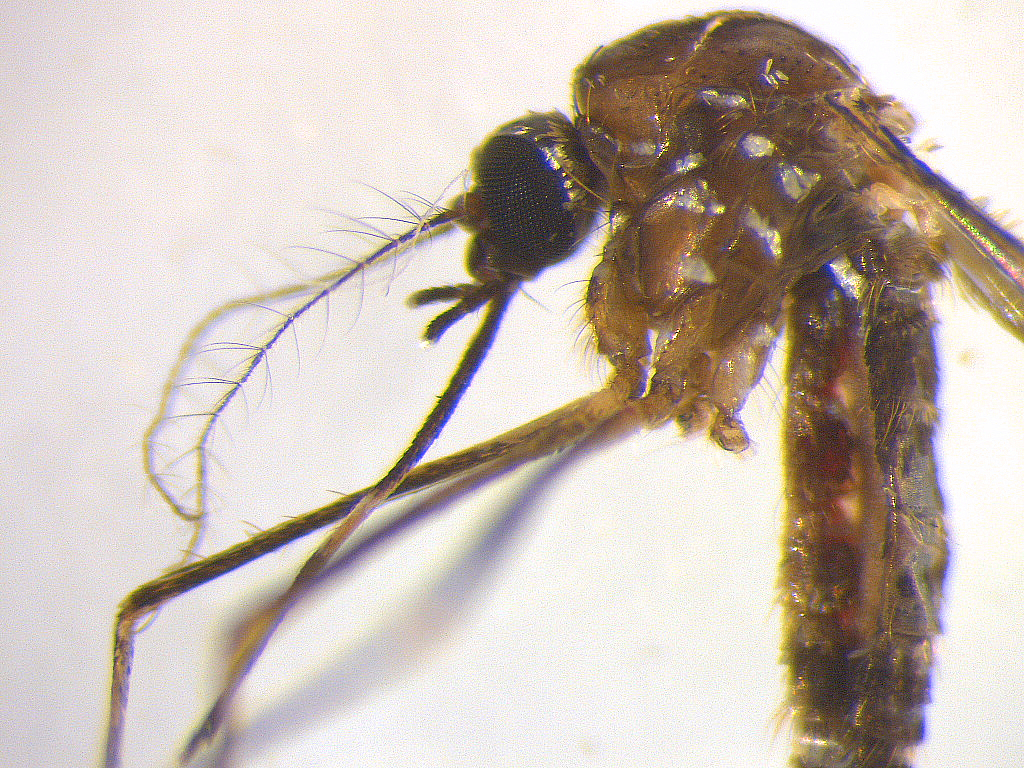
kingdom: Animalia
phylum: Arthropoda
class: Insecta
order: Diptera
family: Culicidae
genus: Aedes
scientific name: Aedes notoscriptus
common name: Australian backyard mosquito
